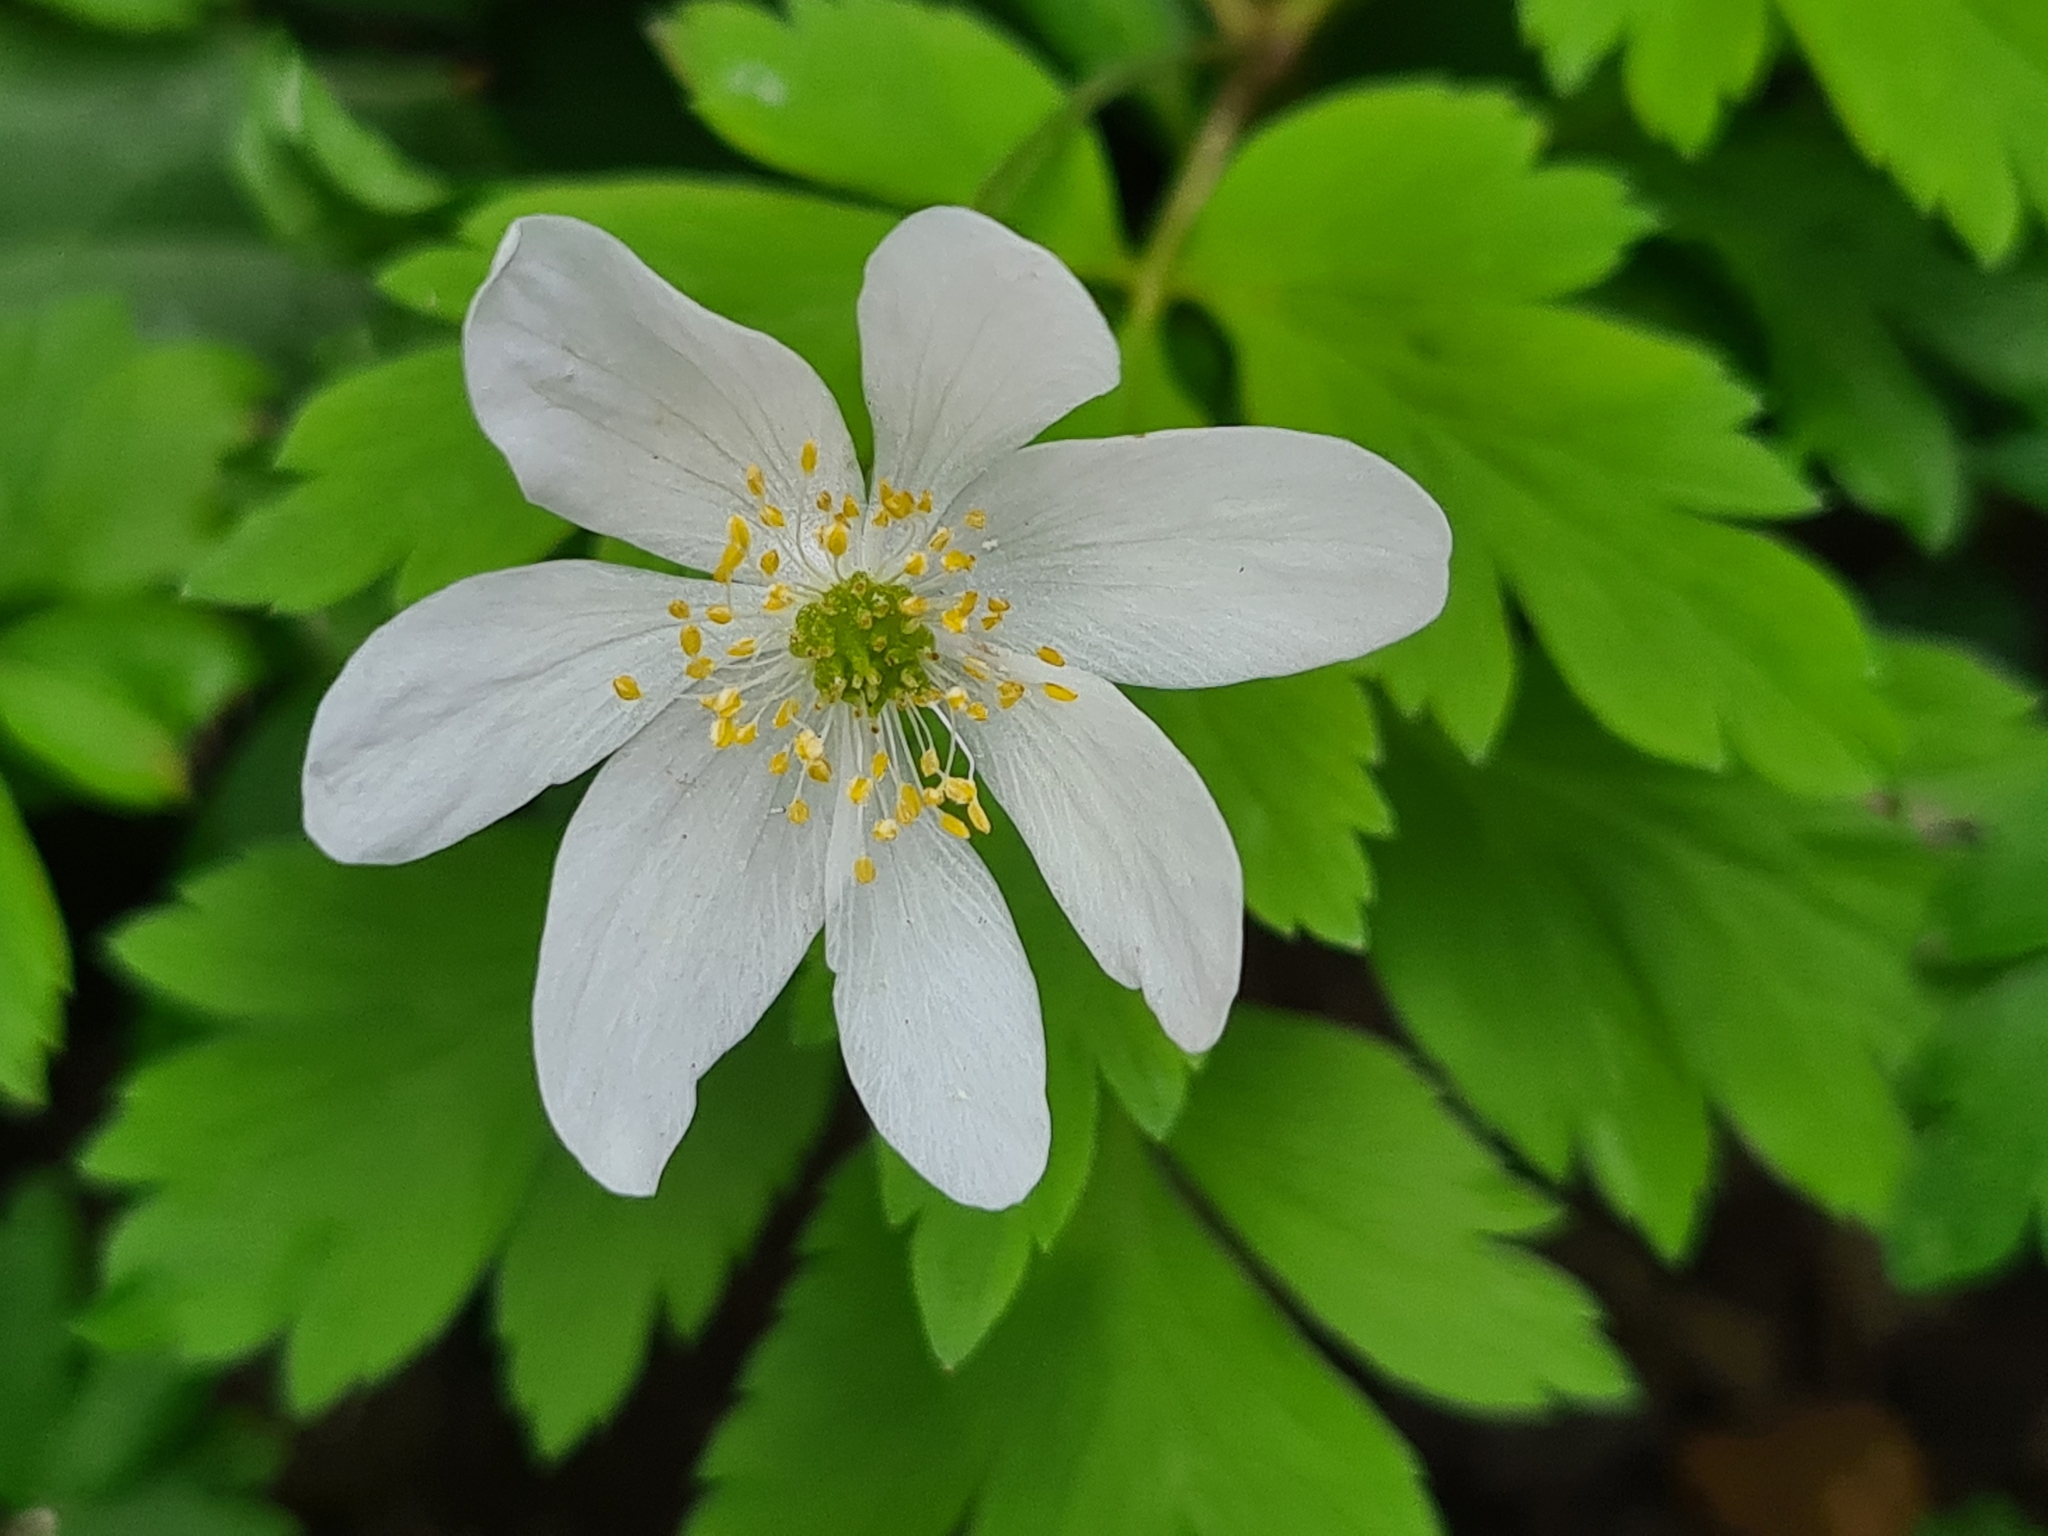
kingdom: Plantae
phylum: Tracheophyta
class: Magnoliopsida
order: Ranunculales
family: Ranunculaceae
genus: Anemone
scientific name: Anemone nemorosa
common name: Wood anemone
